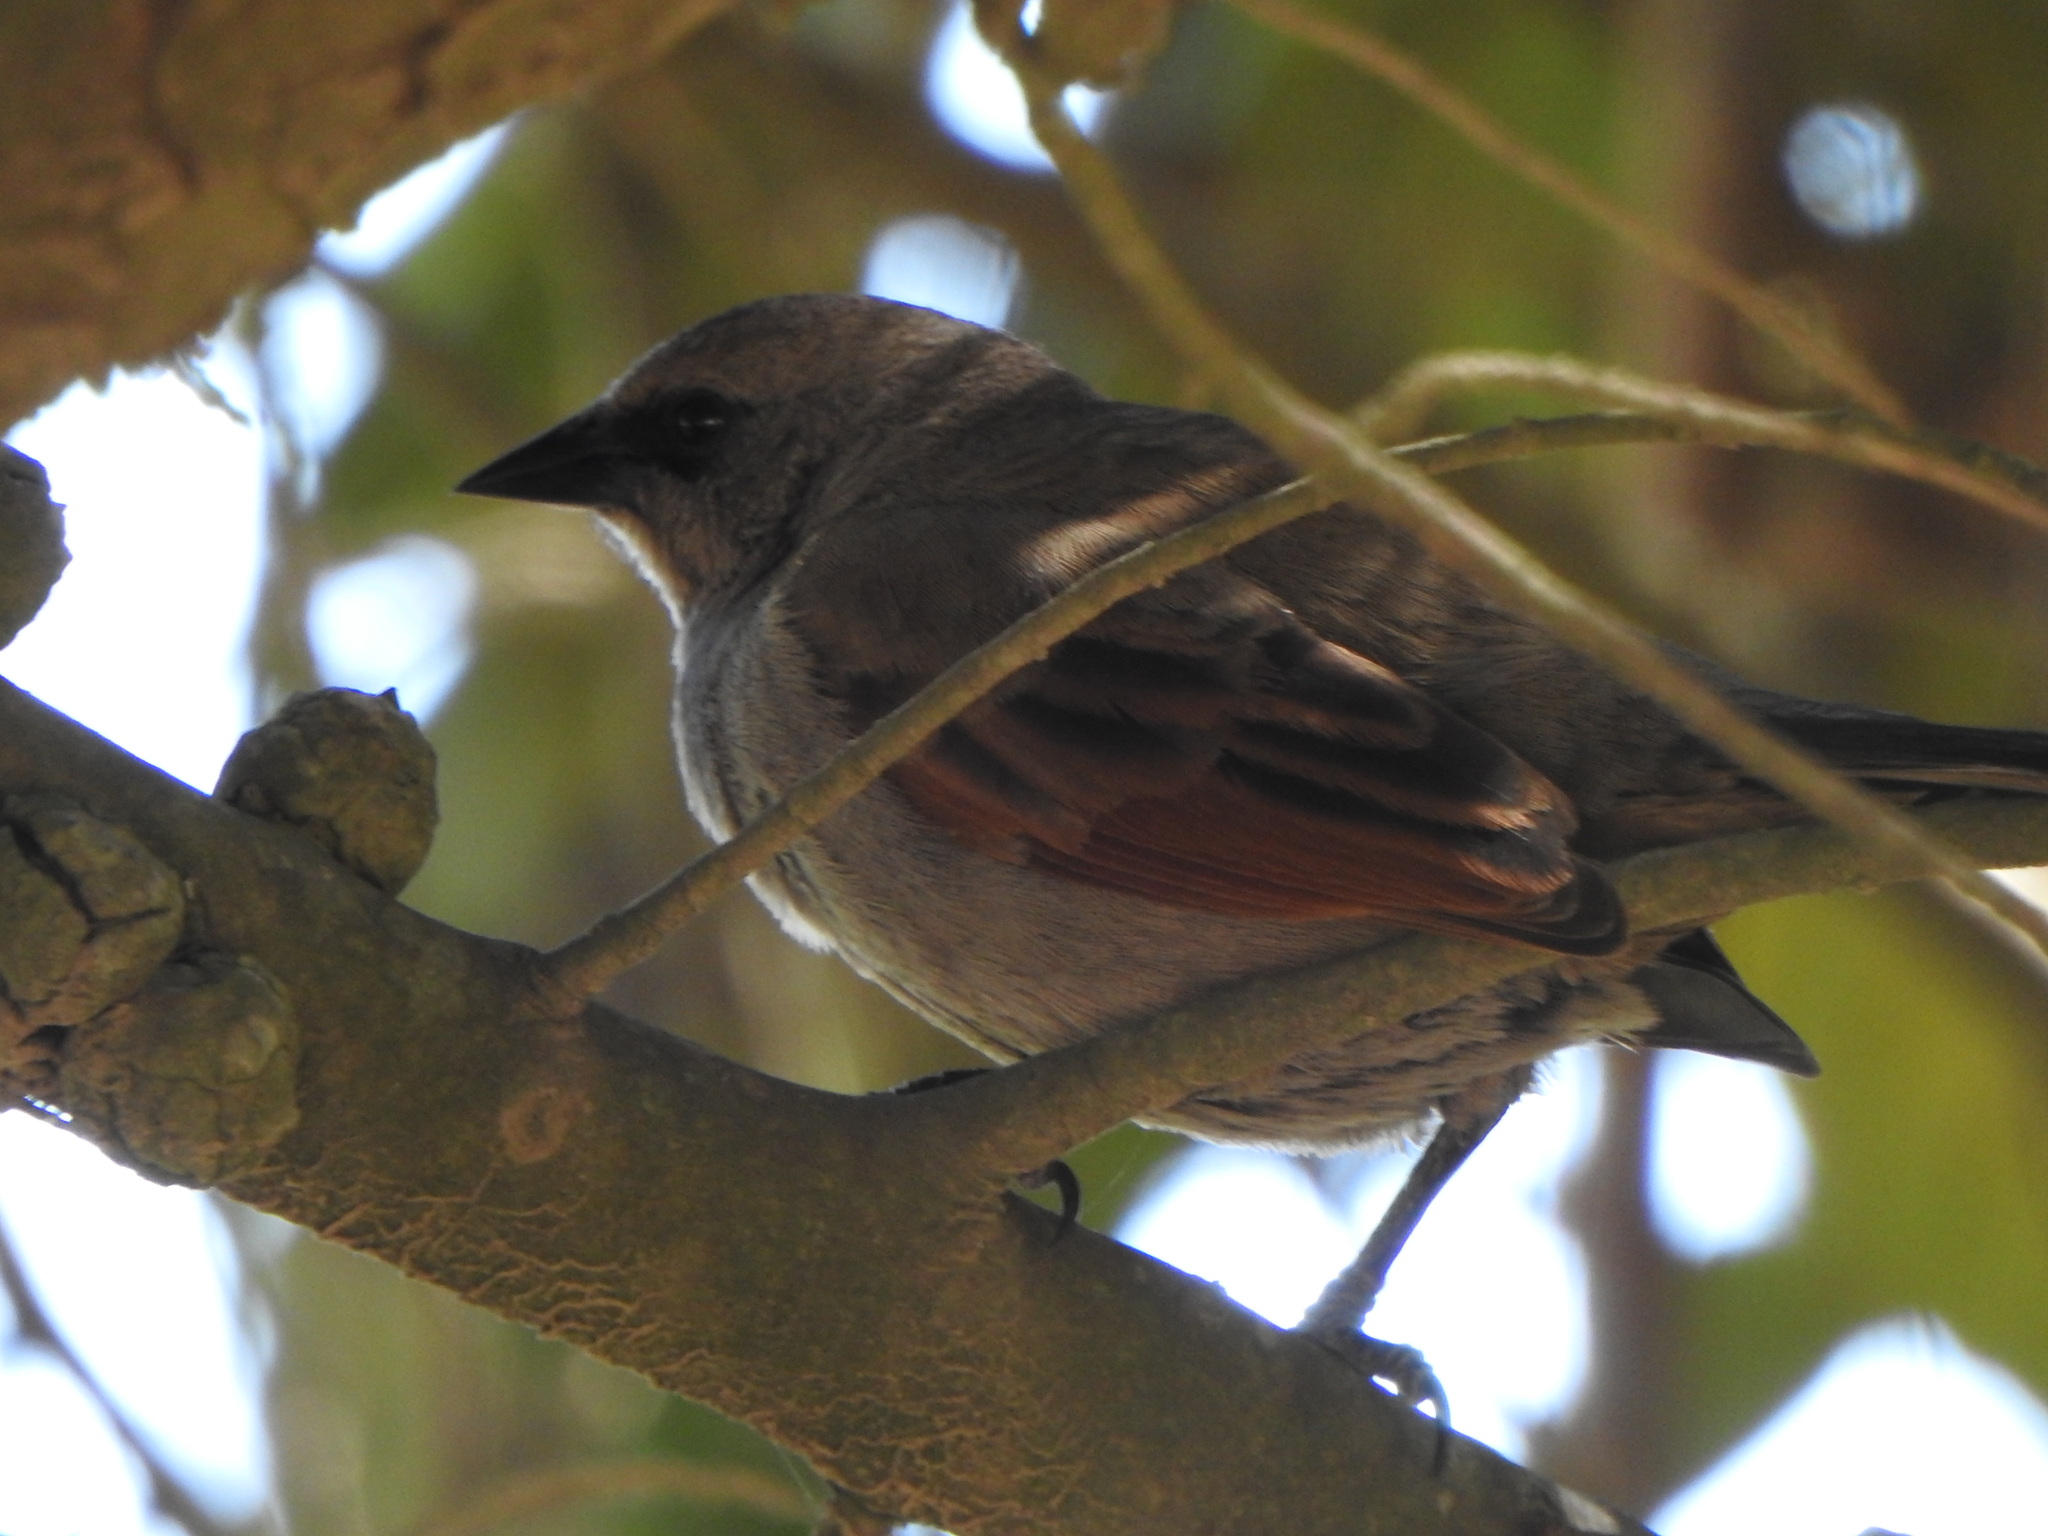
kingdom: Animalia
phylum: Chordata
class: Aves
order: Passeriformes
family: Icteridae
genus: Agelaioides
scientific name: Agelaioides badius
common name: Baywing
